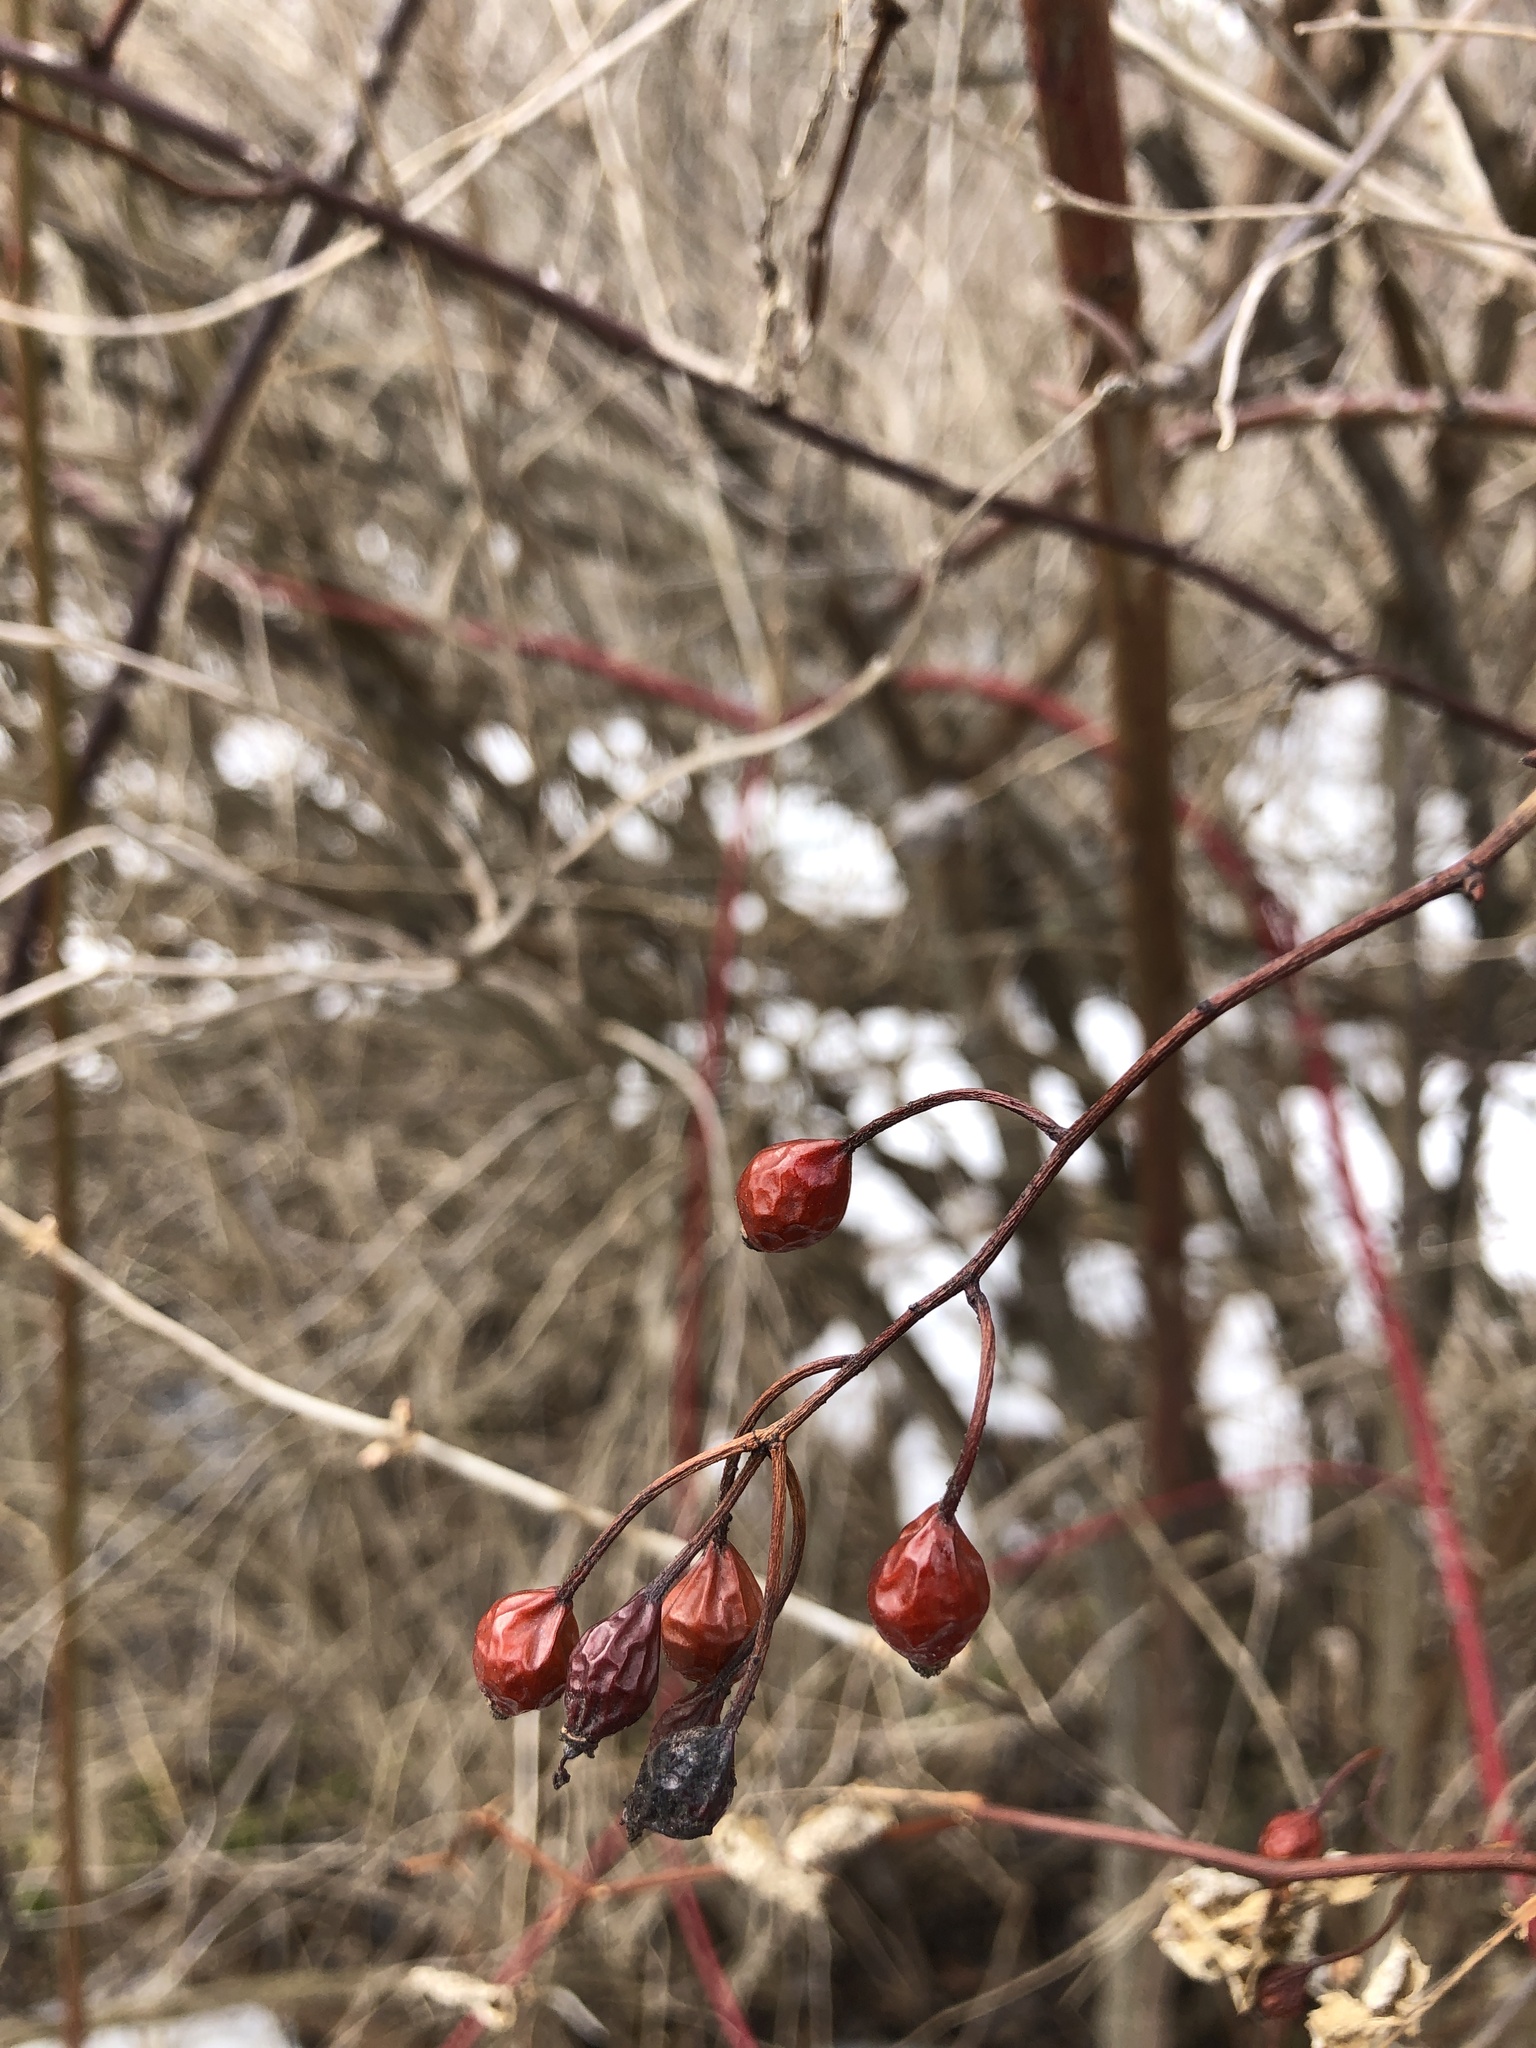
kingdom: Plantae
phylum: Tracheophyta
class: Magnoliopsida
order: Rosales
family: Rosaceae
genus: Rosa
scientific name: Rosa multiflora
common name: Multiflora rose
